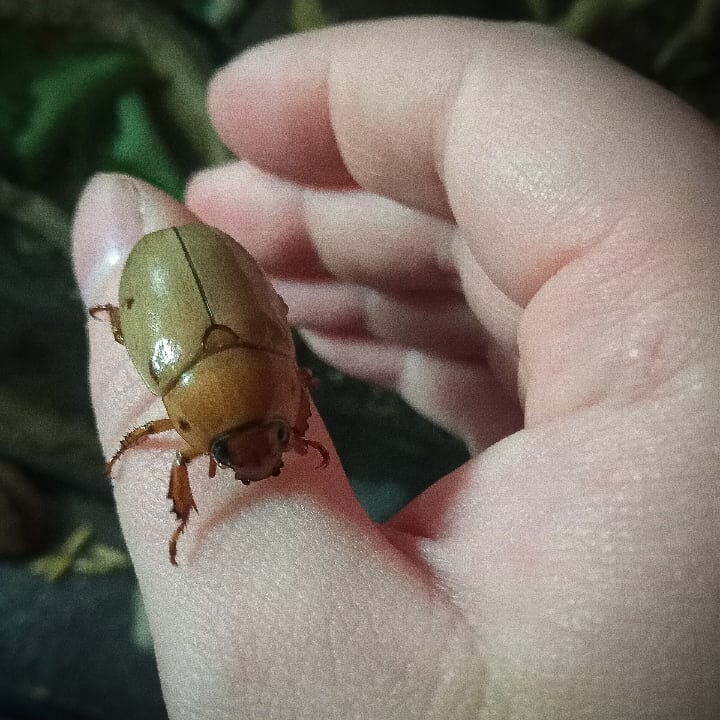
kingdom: Animalia
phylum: Arthropoda
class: Insecta
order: Coleoptera
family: Scarabaeidae
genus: Pelidnota
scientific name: Pelidnota punctata
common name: Grapevine beetle
